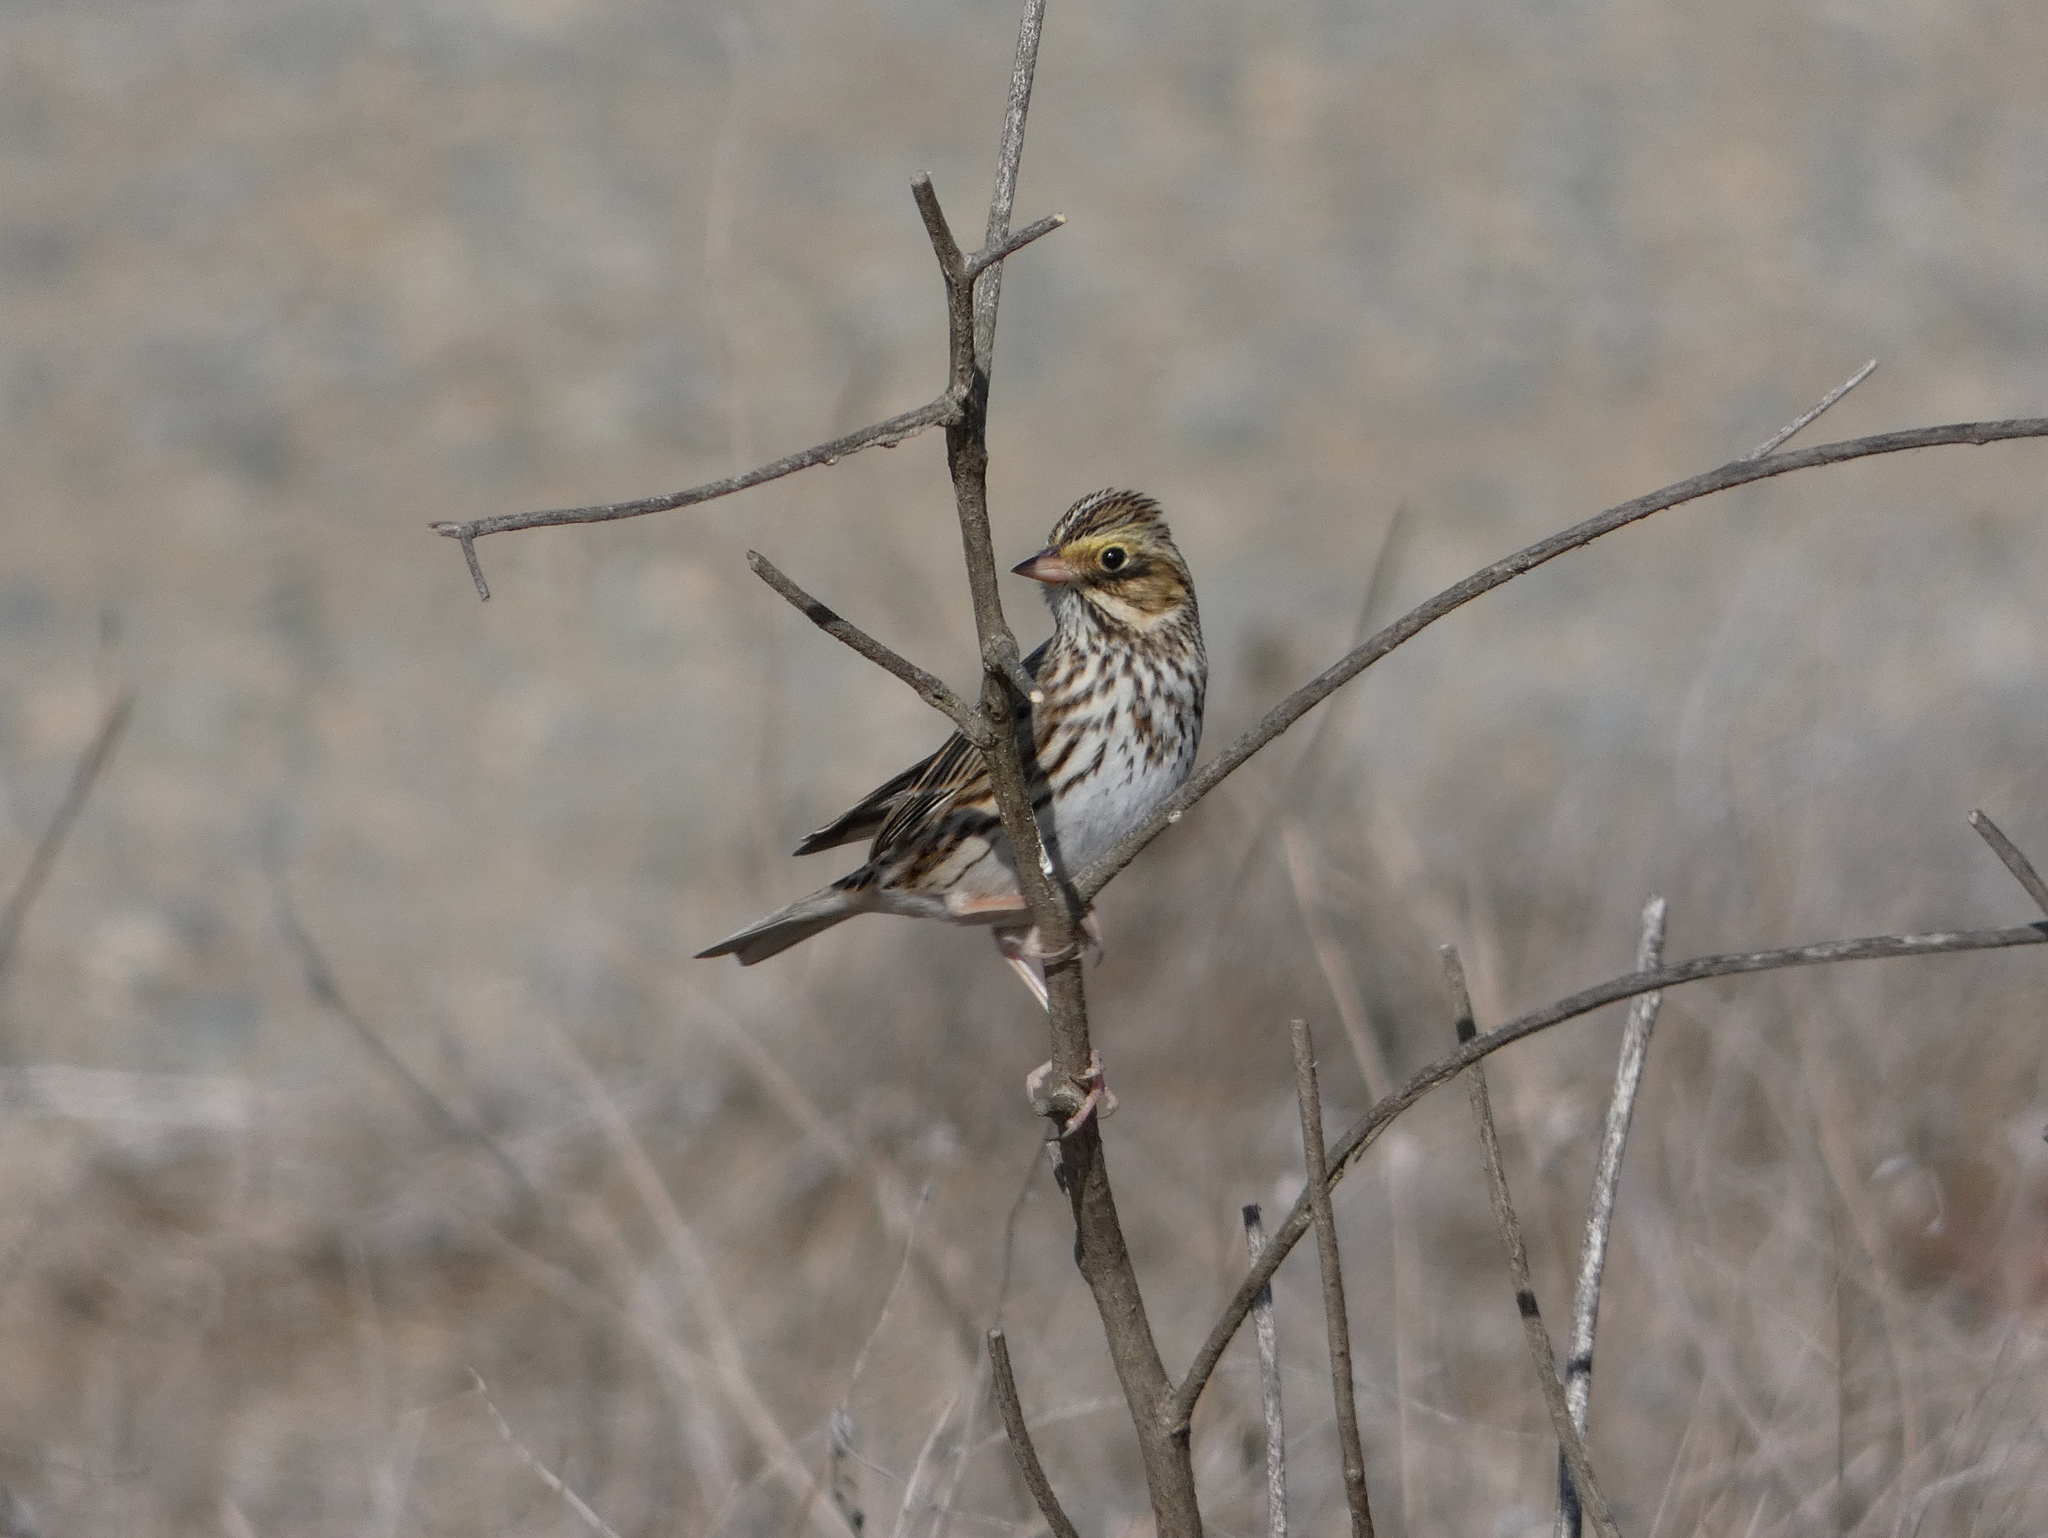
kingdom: Animalia
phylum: Chordata
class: Aves
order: Passeriformes
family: Passerellidae
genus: Passerculus
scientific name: Passerculus sandwichensis
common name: Savannah sparrow
